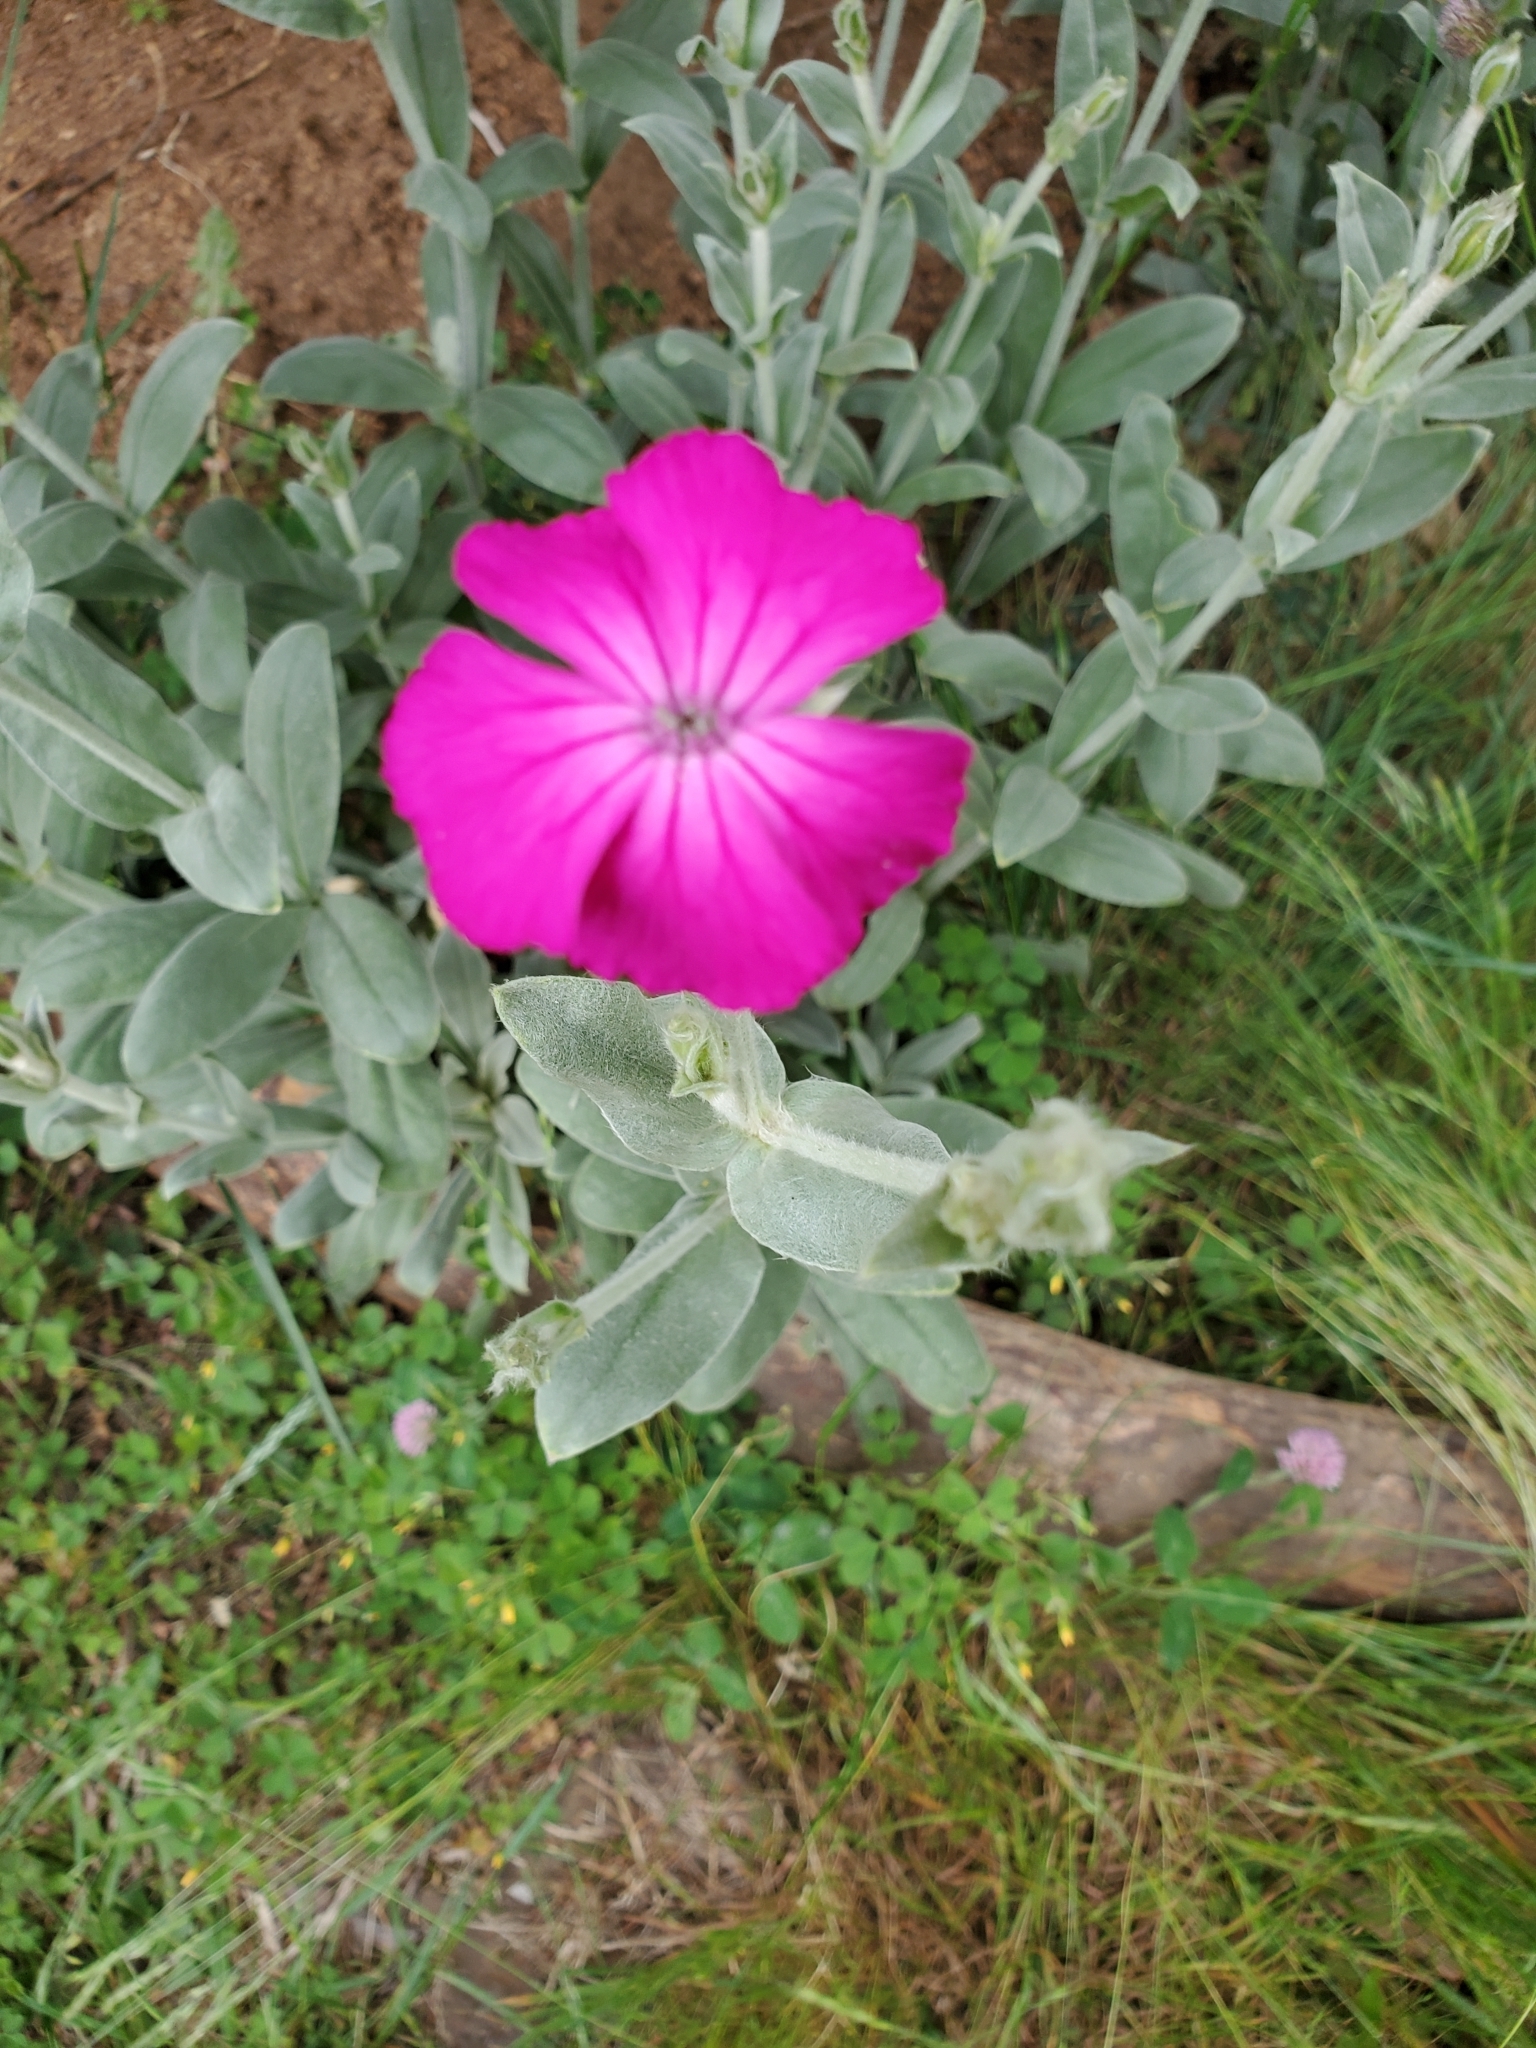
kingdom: Plantae
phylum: Tracheophyta
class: Magnoliopsida
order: Caryophyllales
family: Caryophyllaceae
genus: Silene
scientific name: Silene coronaria
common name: Rose campion
